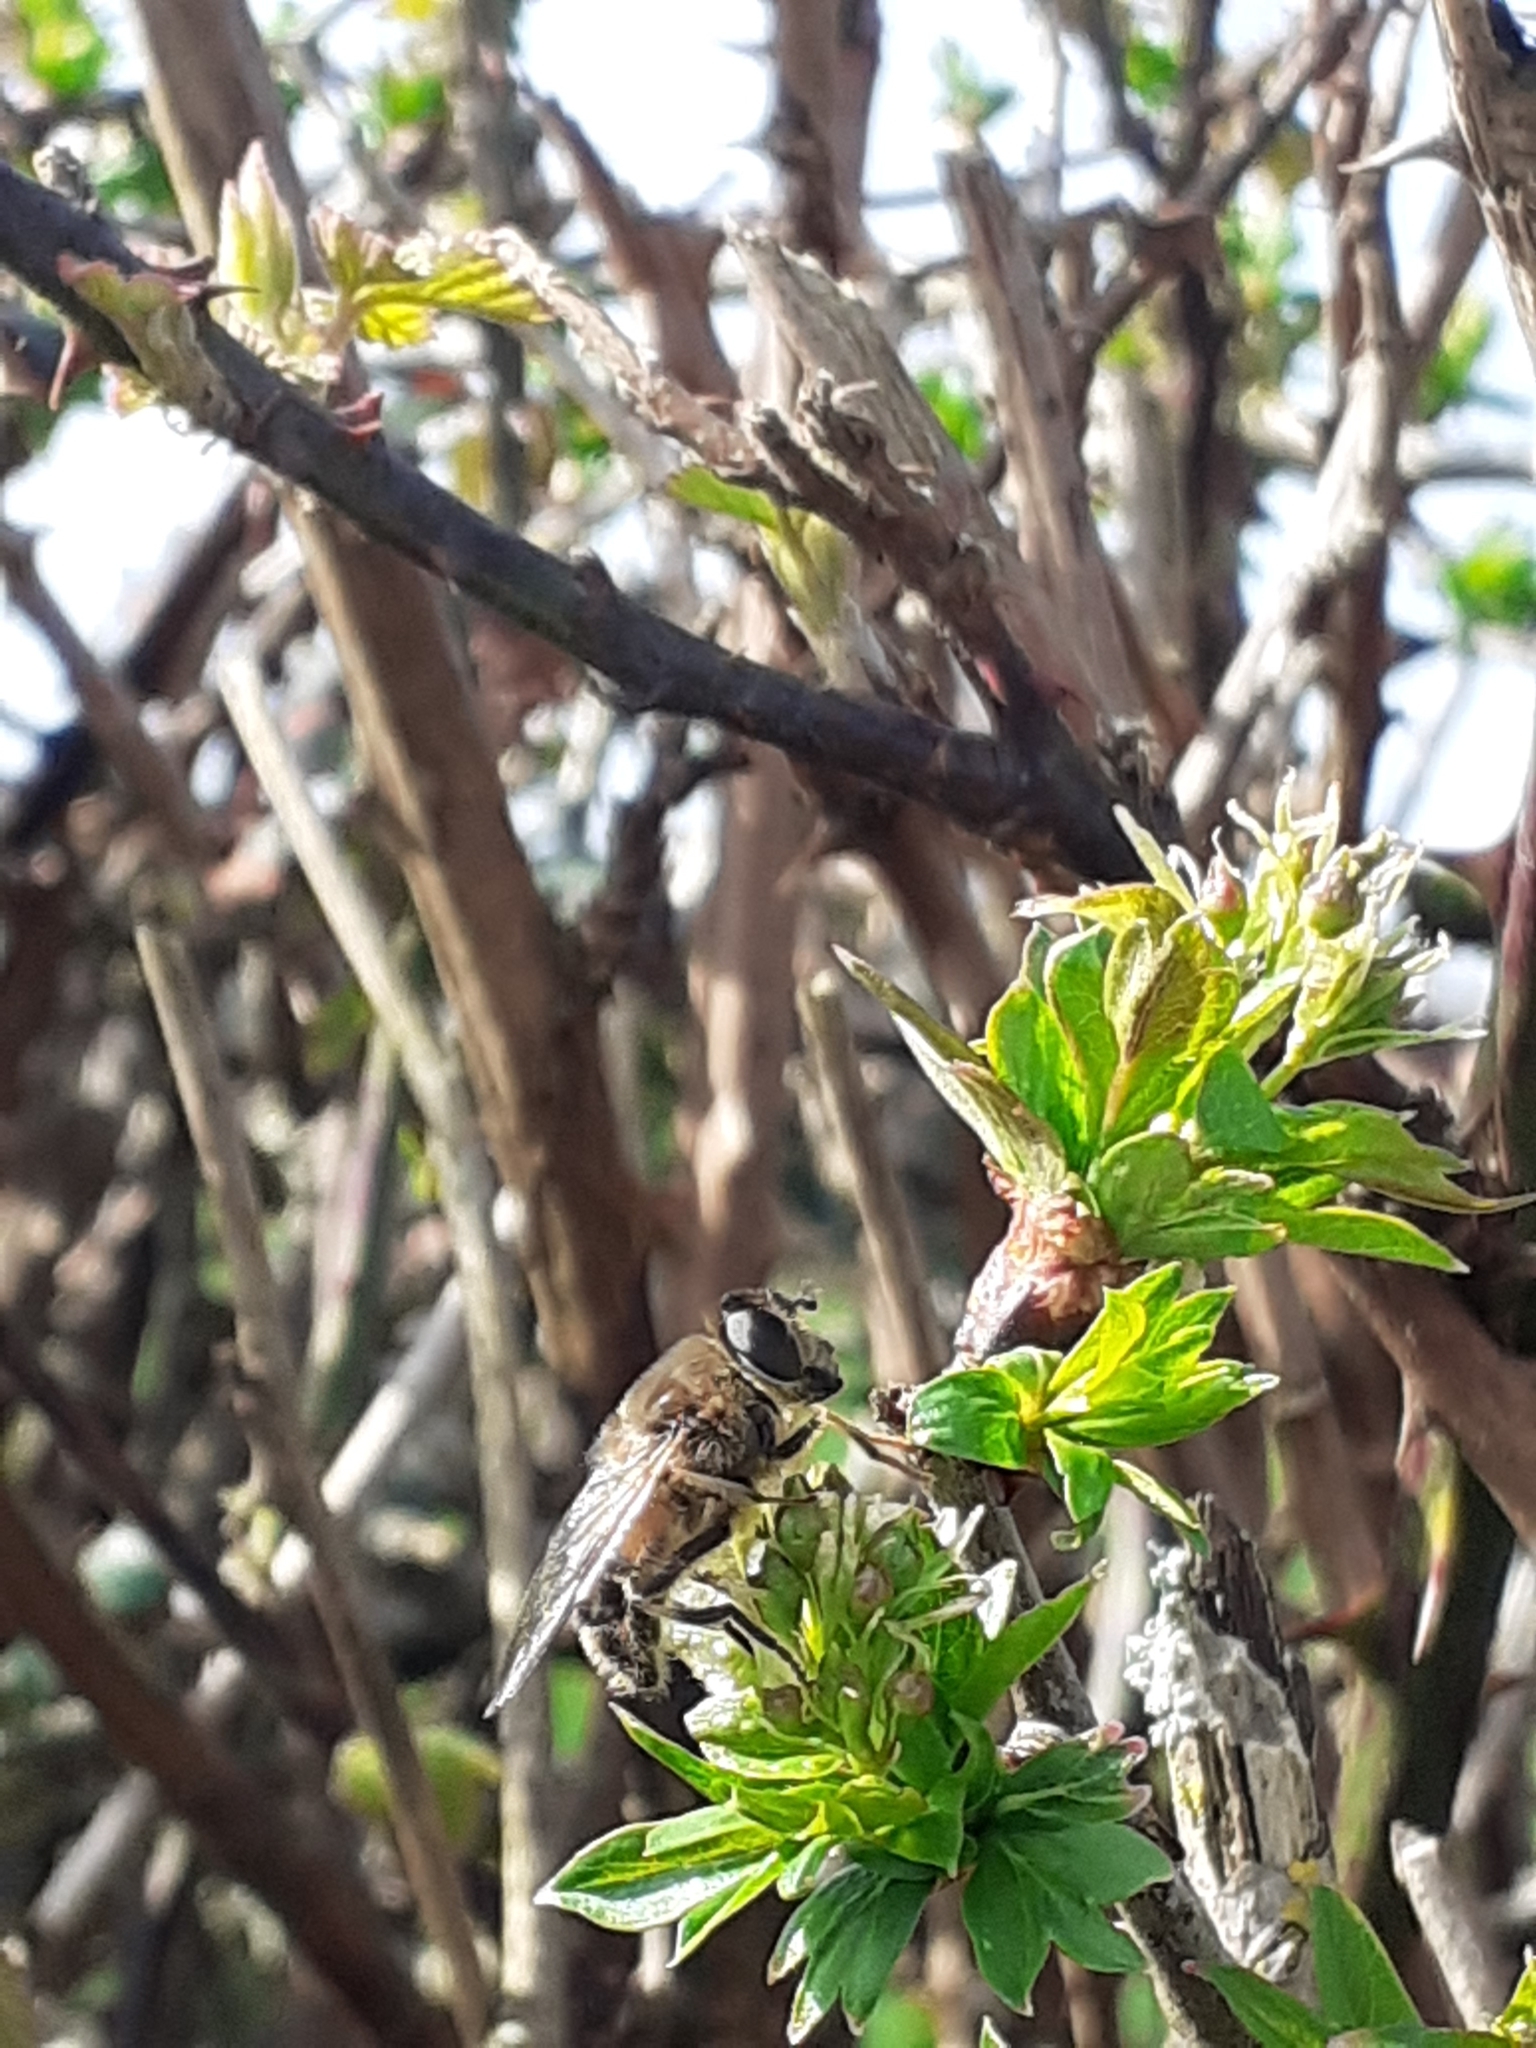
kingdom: Animalia
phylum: Arthropoda
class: Insecta
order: Diptera
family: Syrphidae
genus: Eristalis
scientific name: Eristalis pertinax
